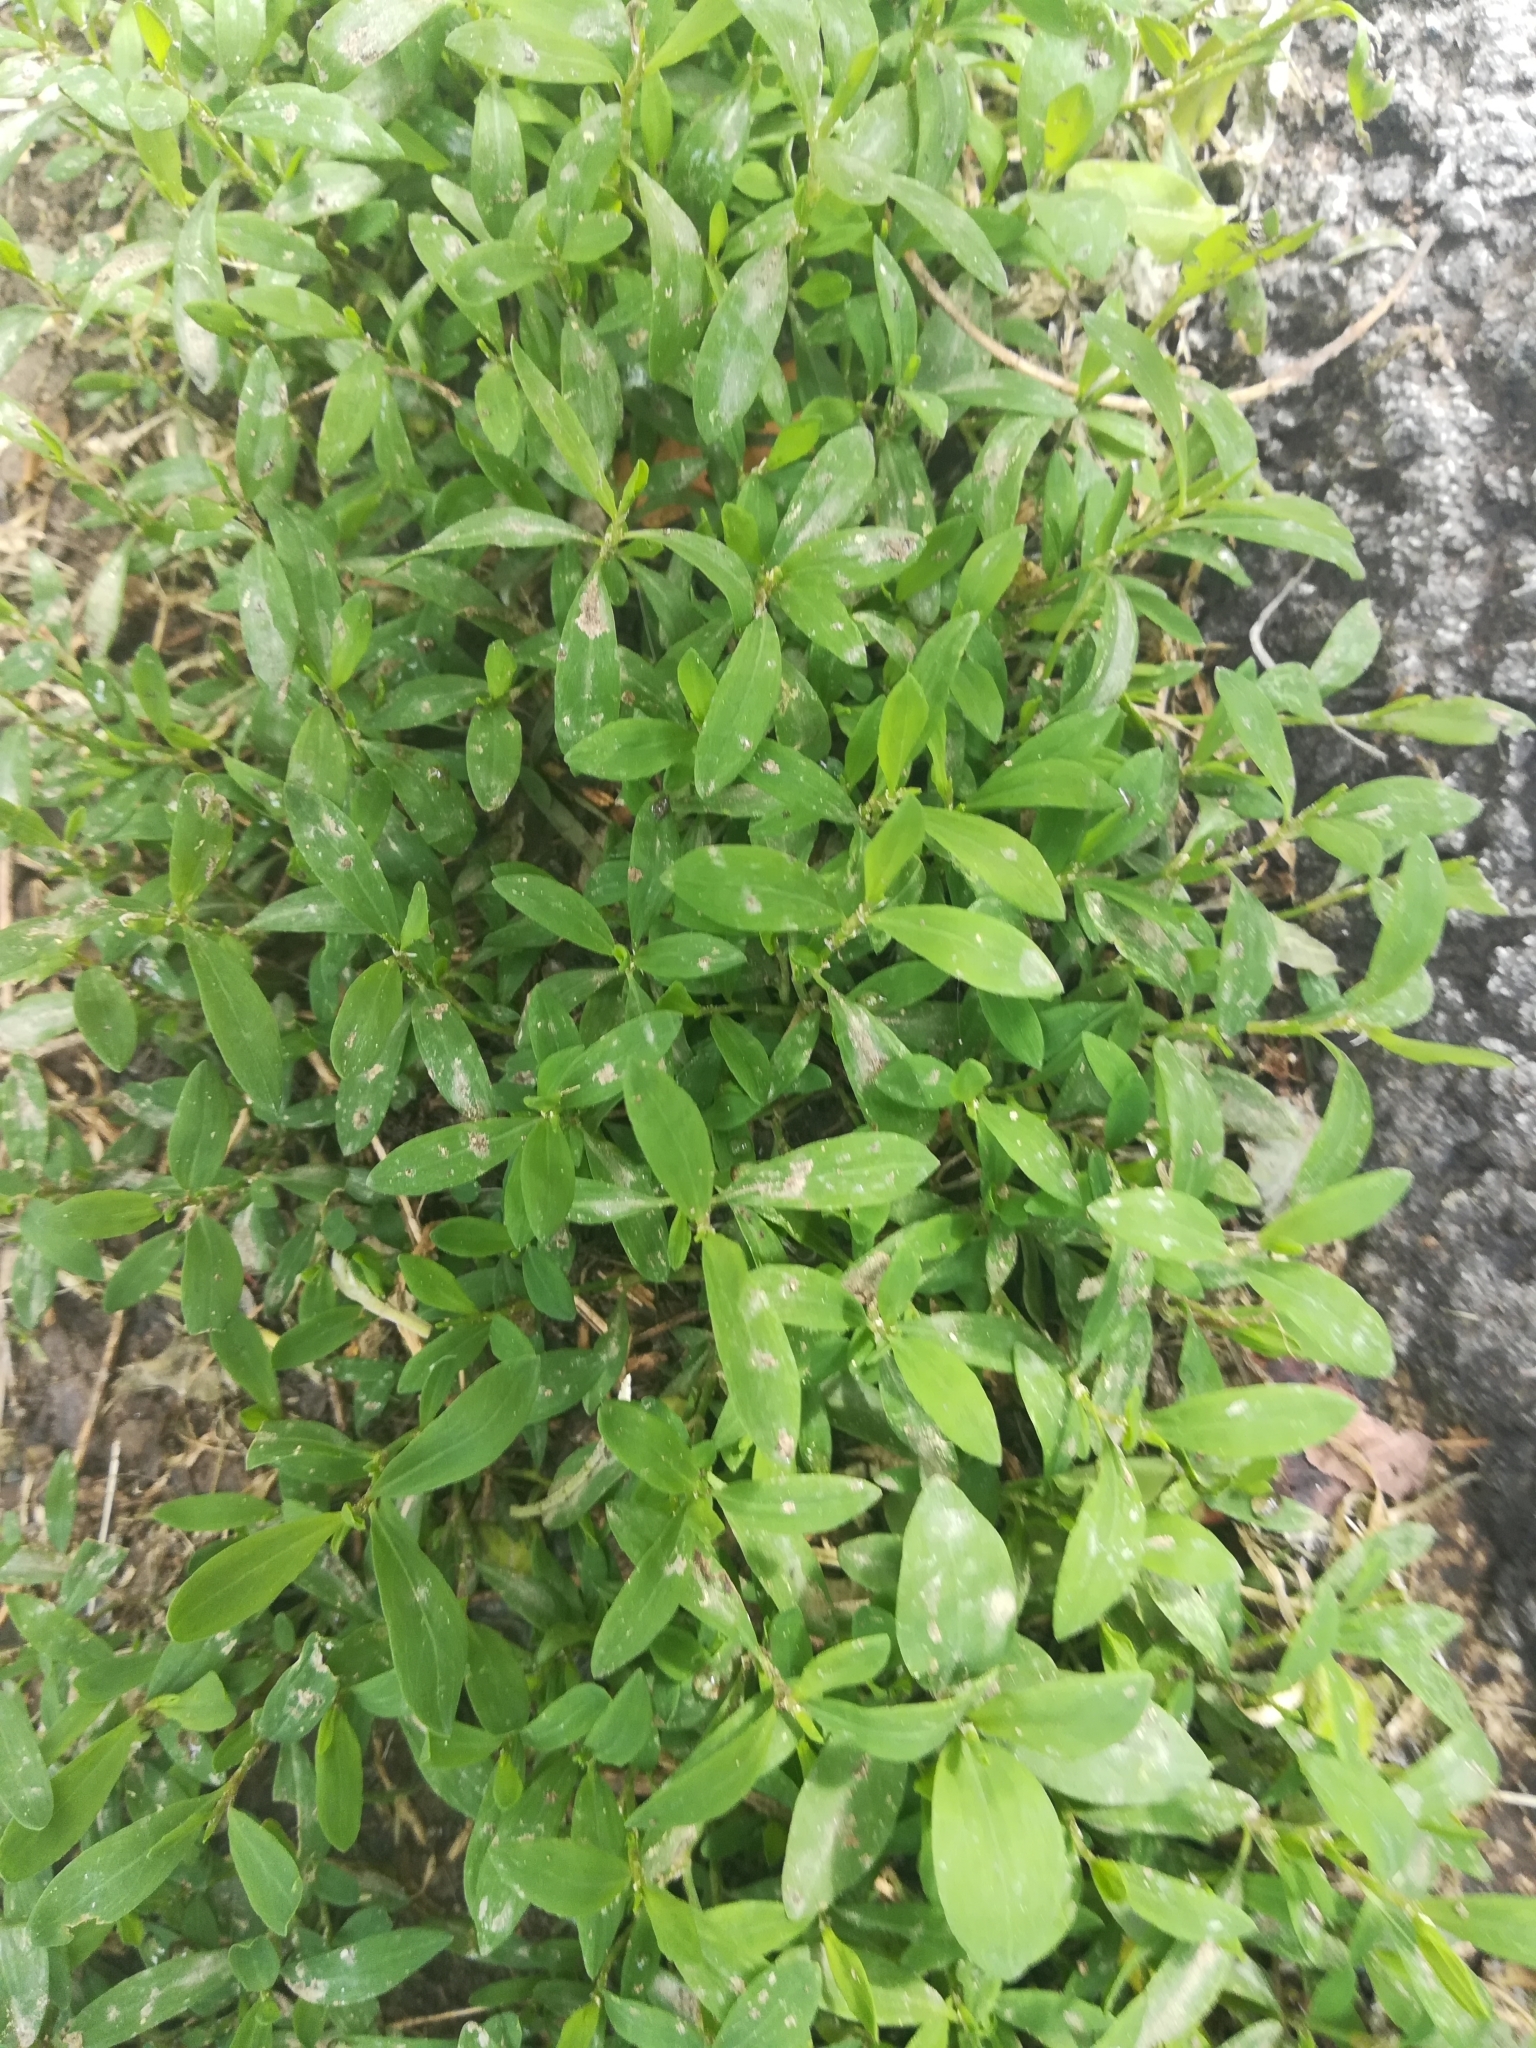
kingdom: Plantae
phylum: Tracheophyta
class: Magnoliopsida
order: Caryophyllales
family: Polygonaceae
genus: Polygonum
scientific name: Polygonum aviculare
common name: Prostrate knotweed
